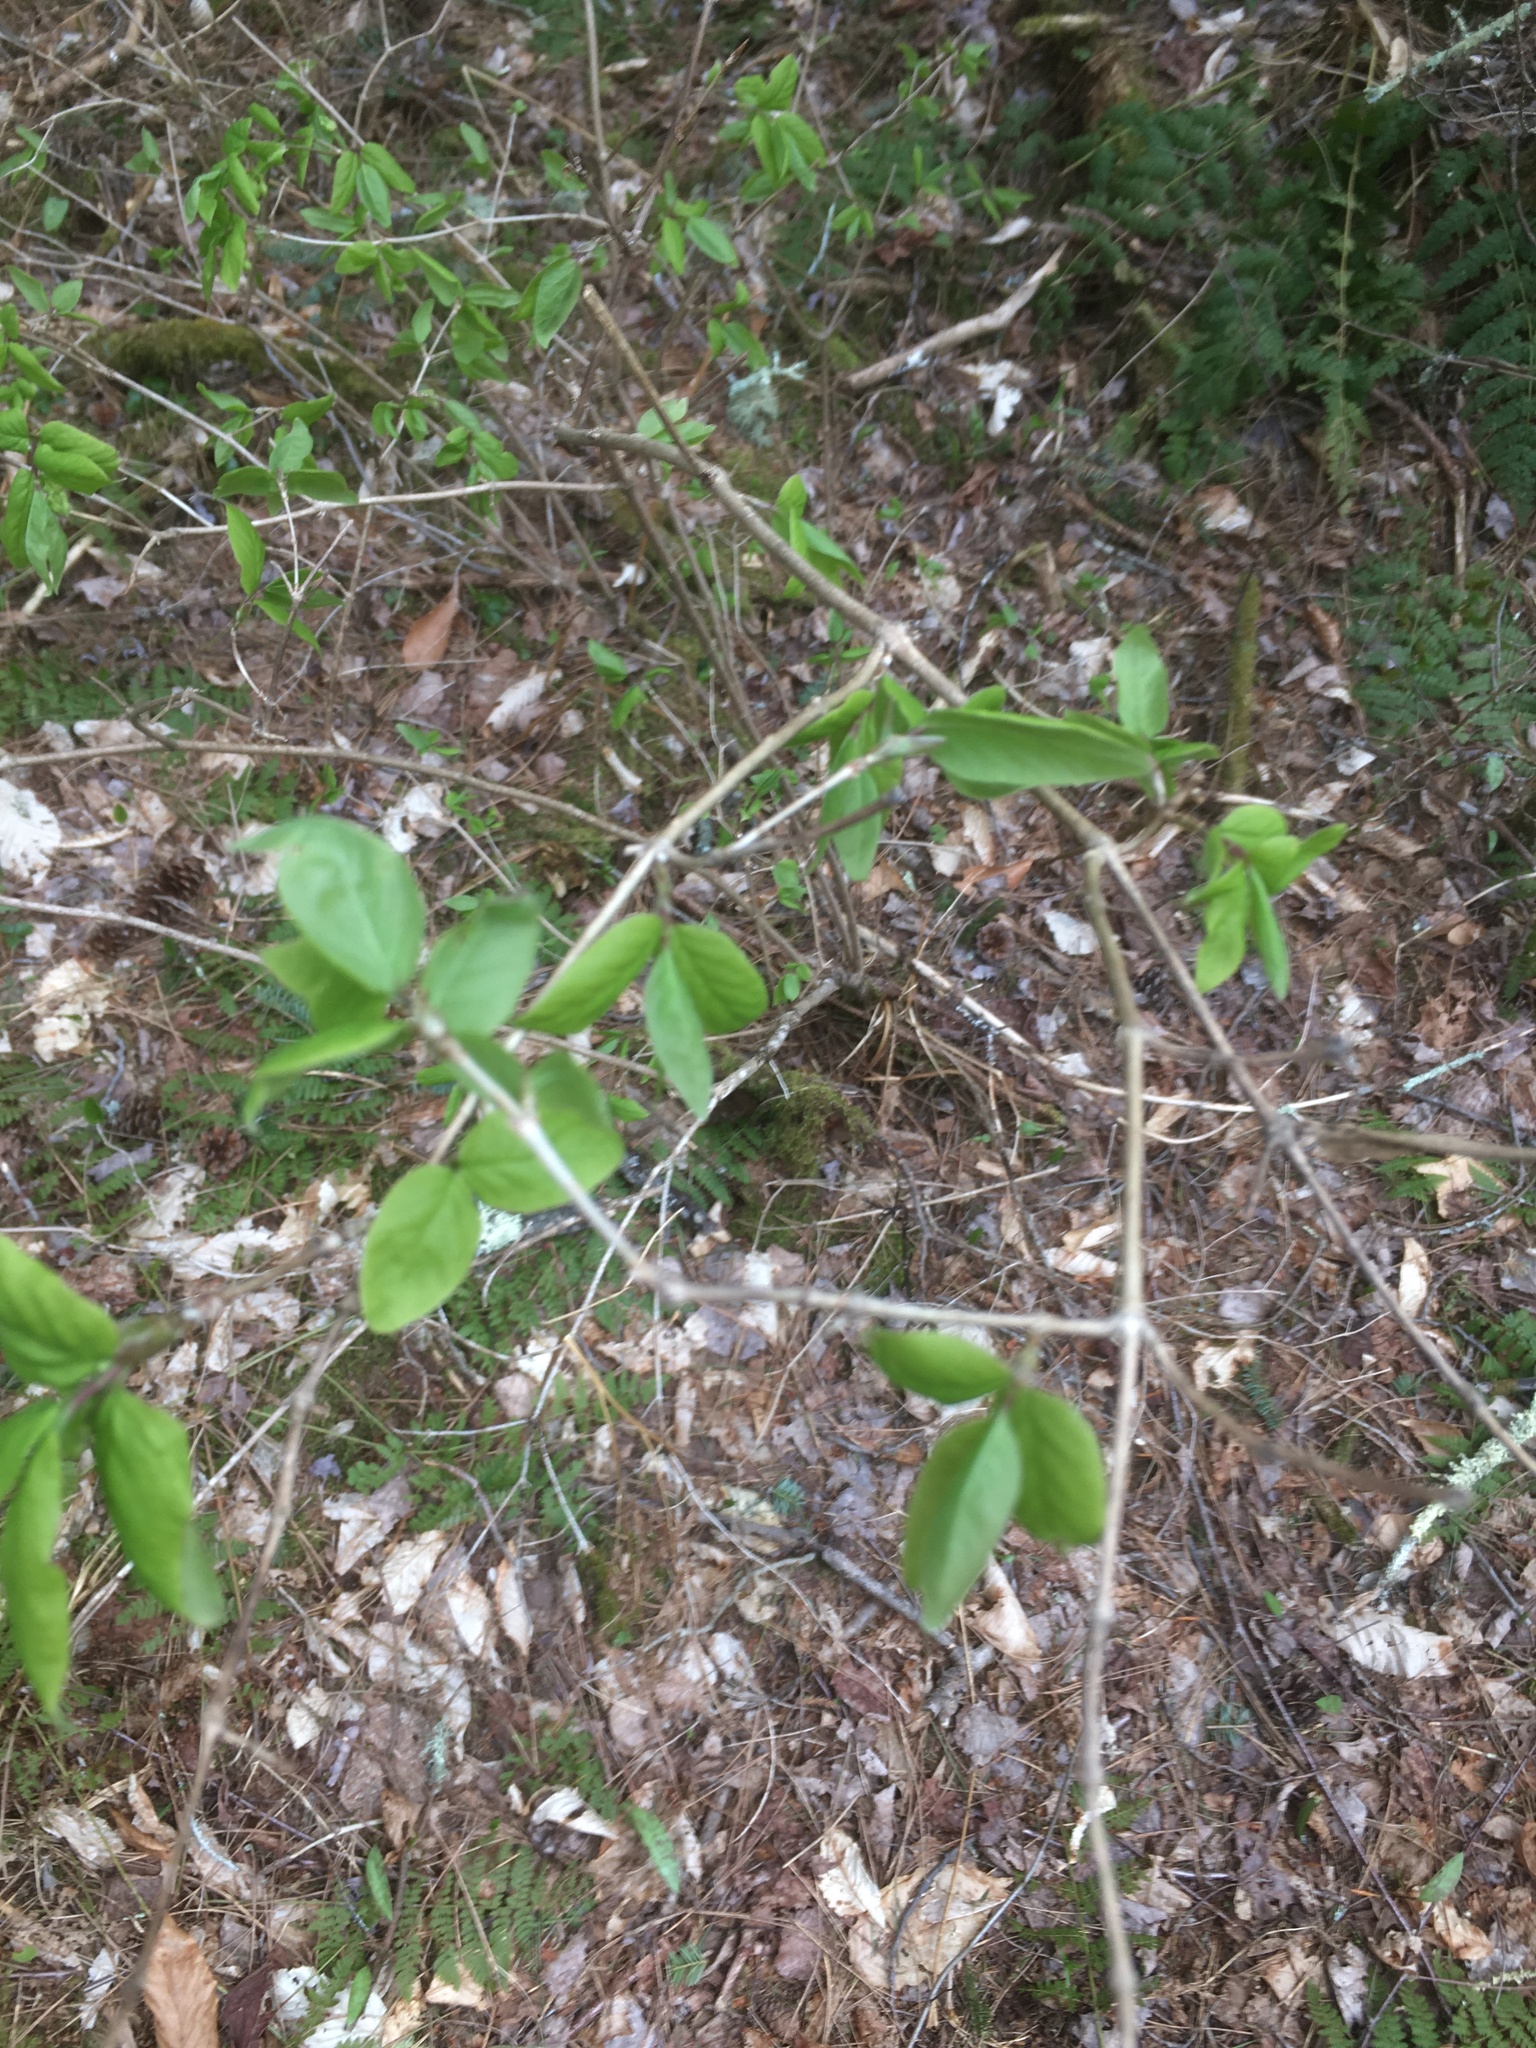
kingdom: Plantae
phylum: Tracheophyta
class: Magnoliopsida
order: Dipsacales
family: Caprifoliaceae
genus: Lonicera
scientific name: Lonicera canadensis
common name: American fly-honeysuckle
